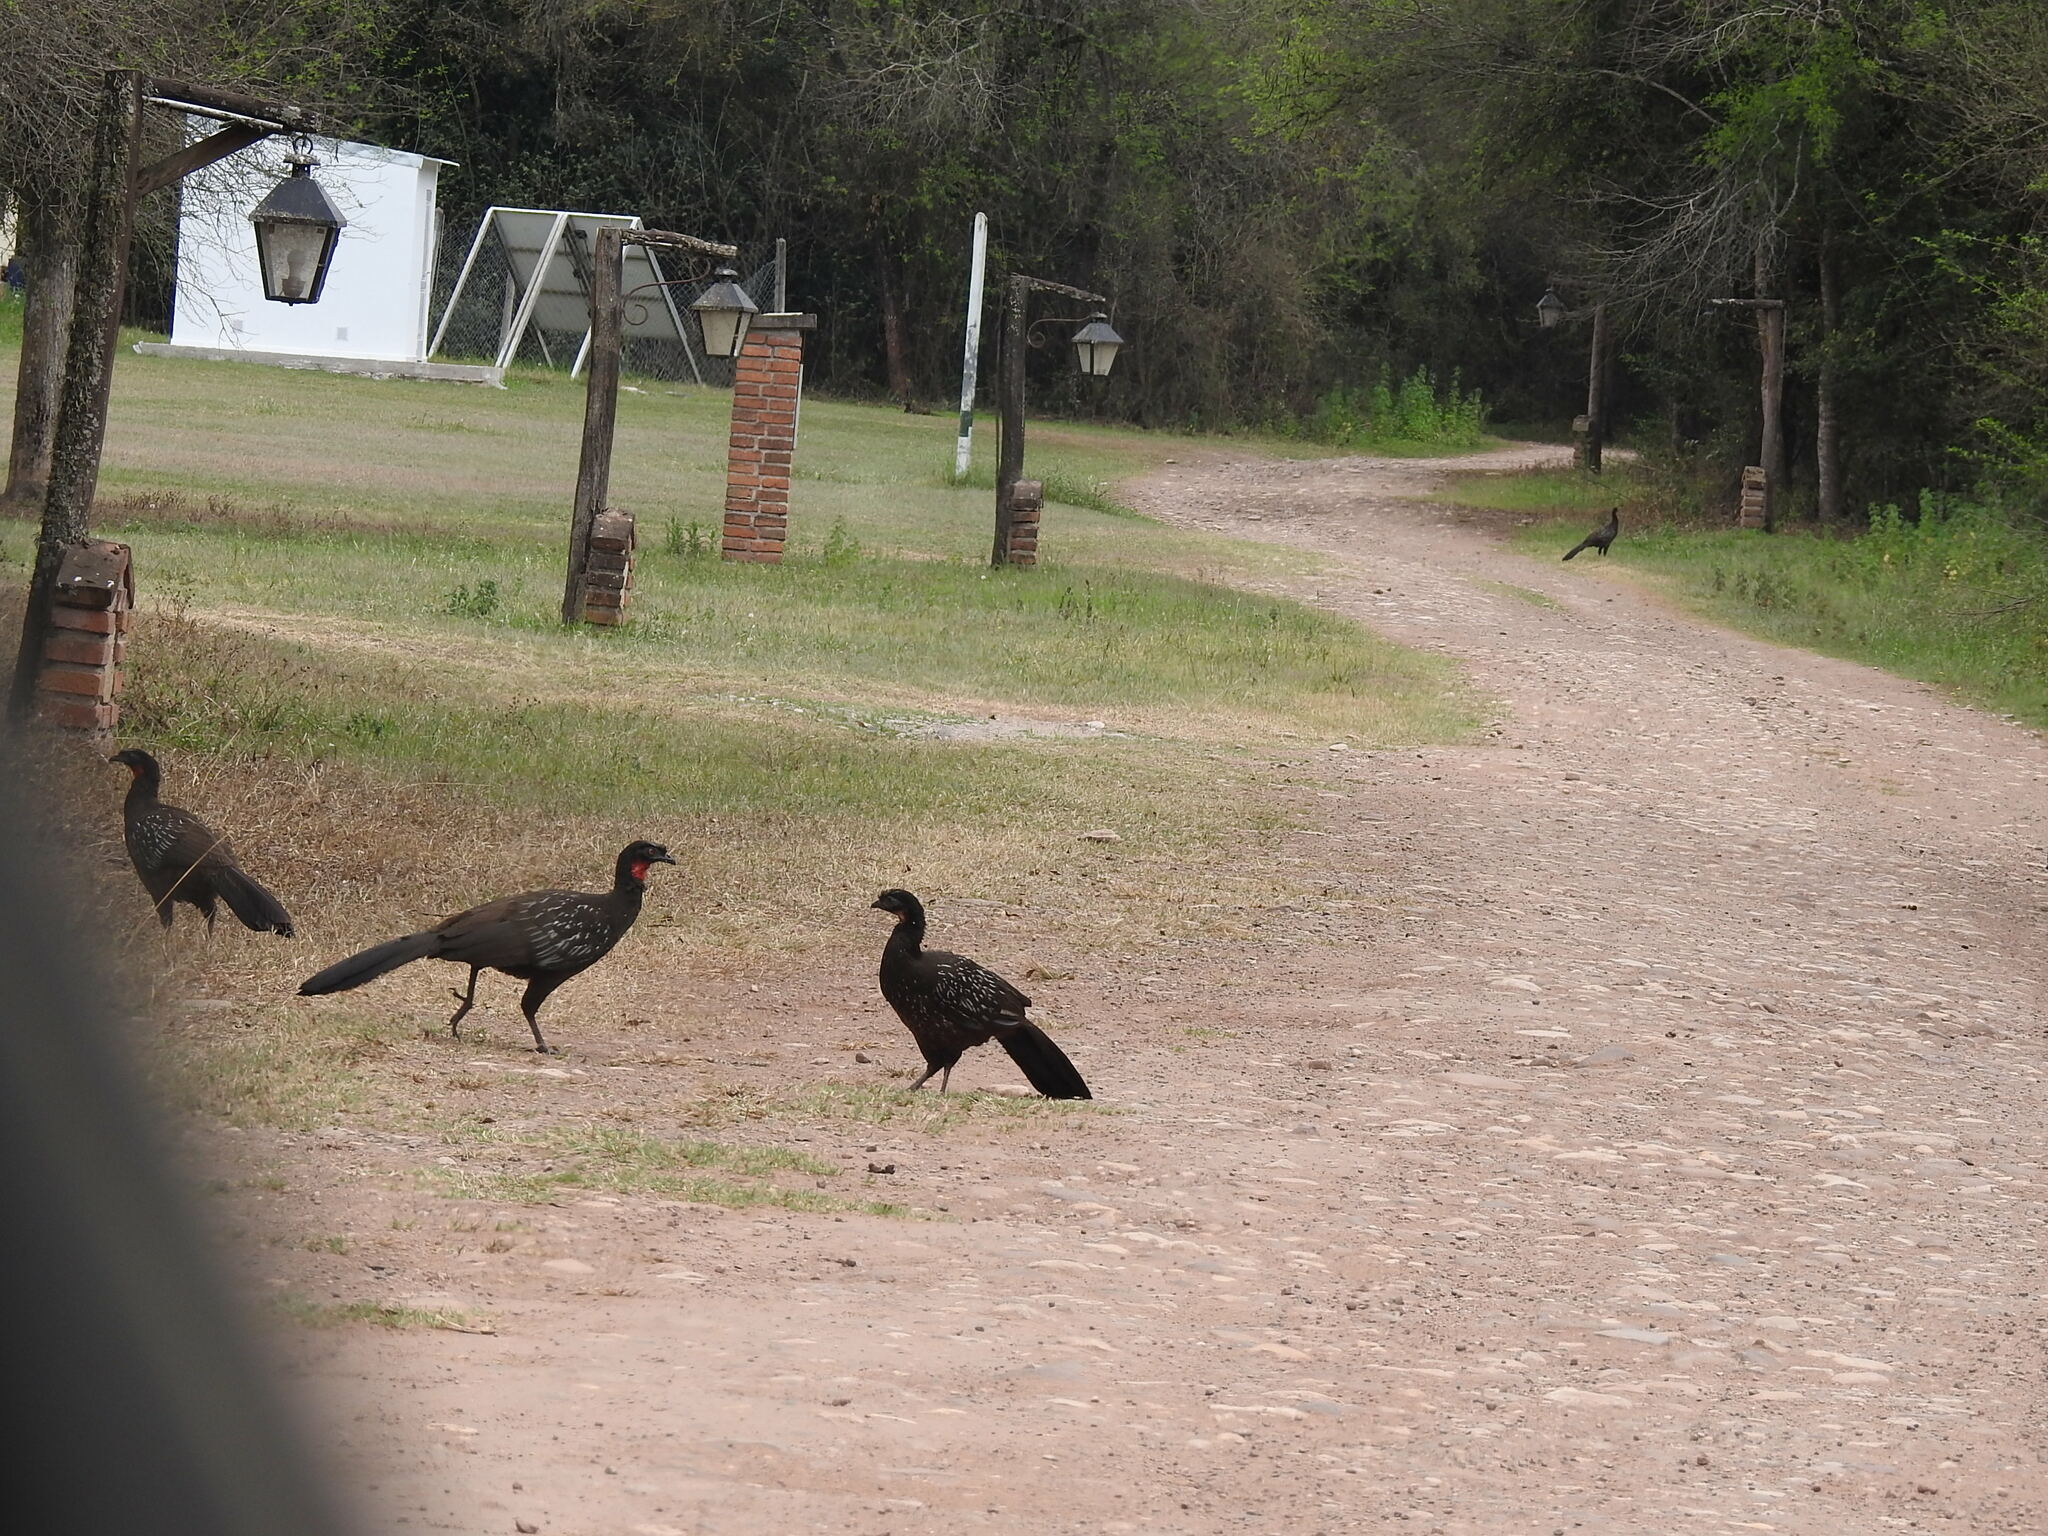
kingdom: Animalia
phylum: Chordata
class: Aves
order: Galliformes
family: Cracidae
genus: Penelope
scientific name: Penelope bridgesi
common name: Yungas guan
